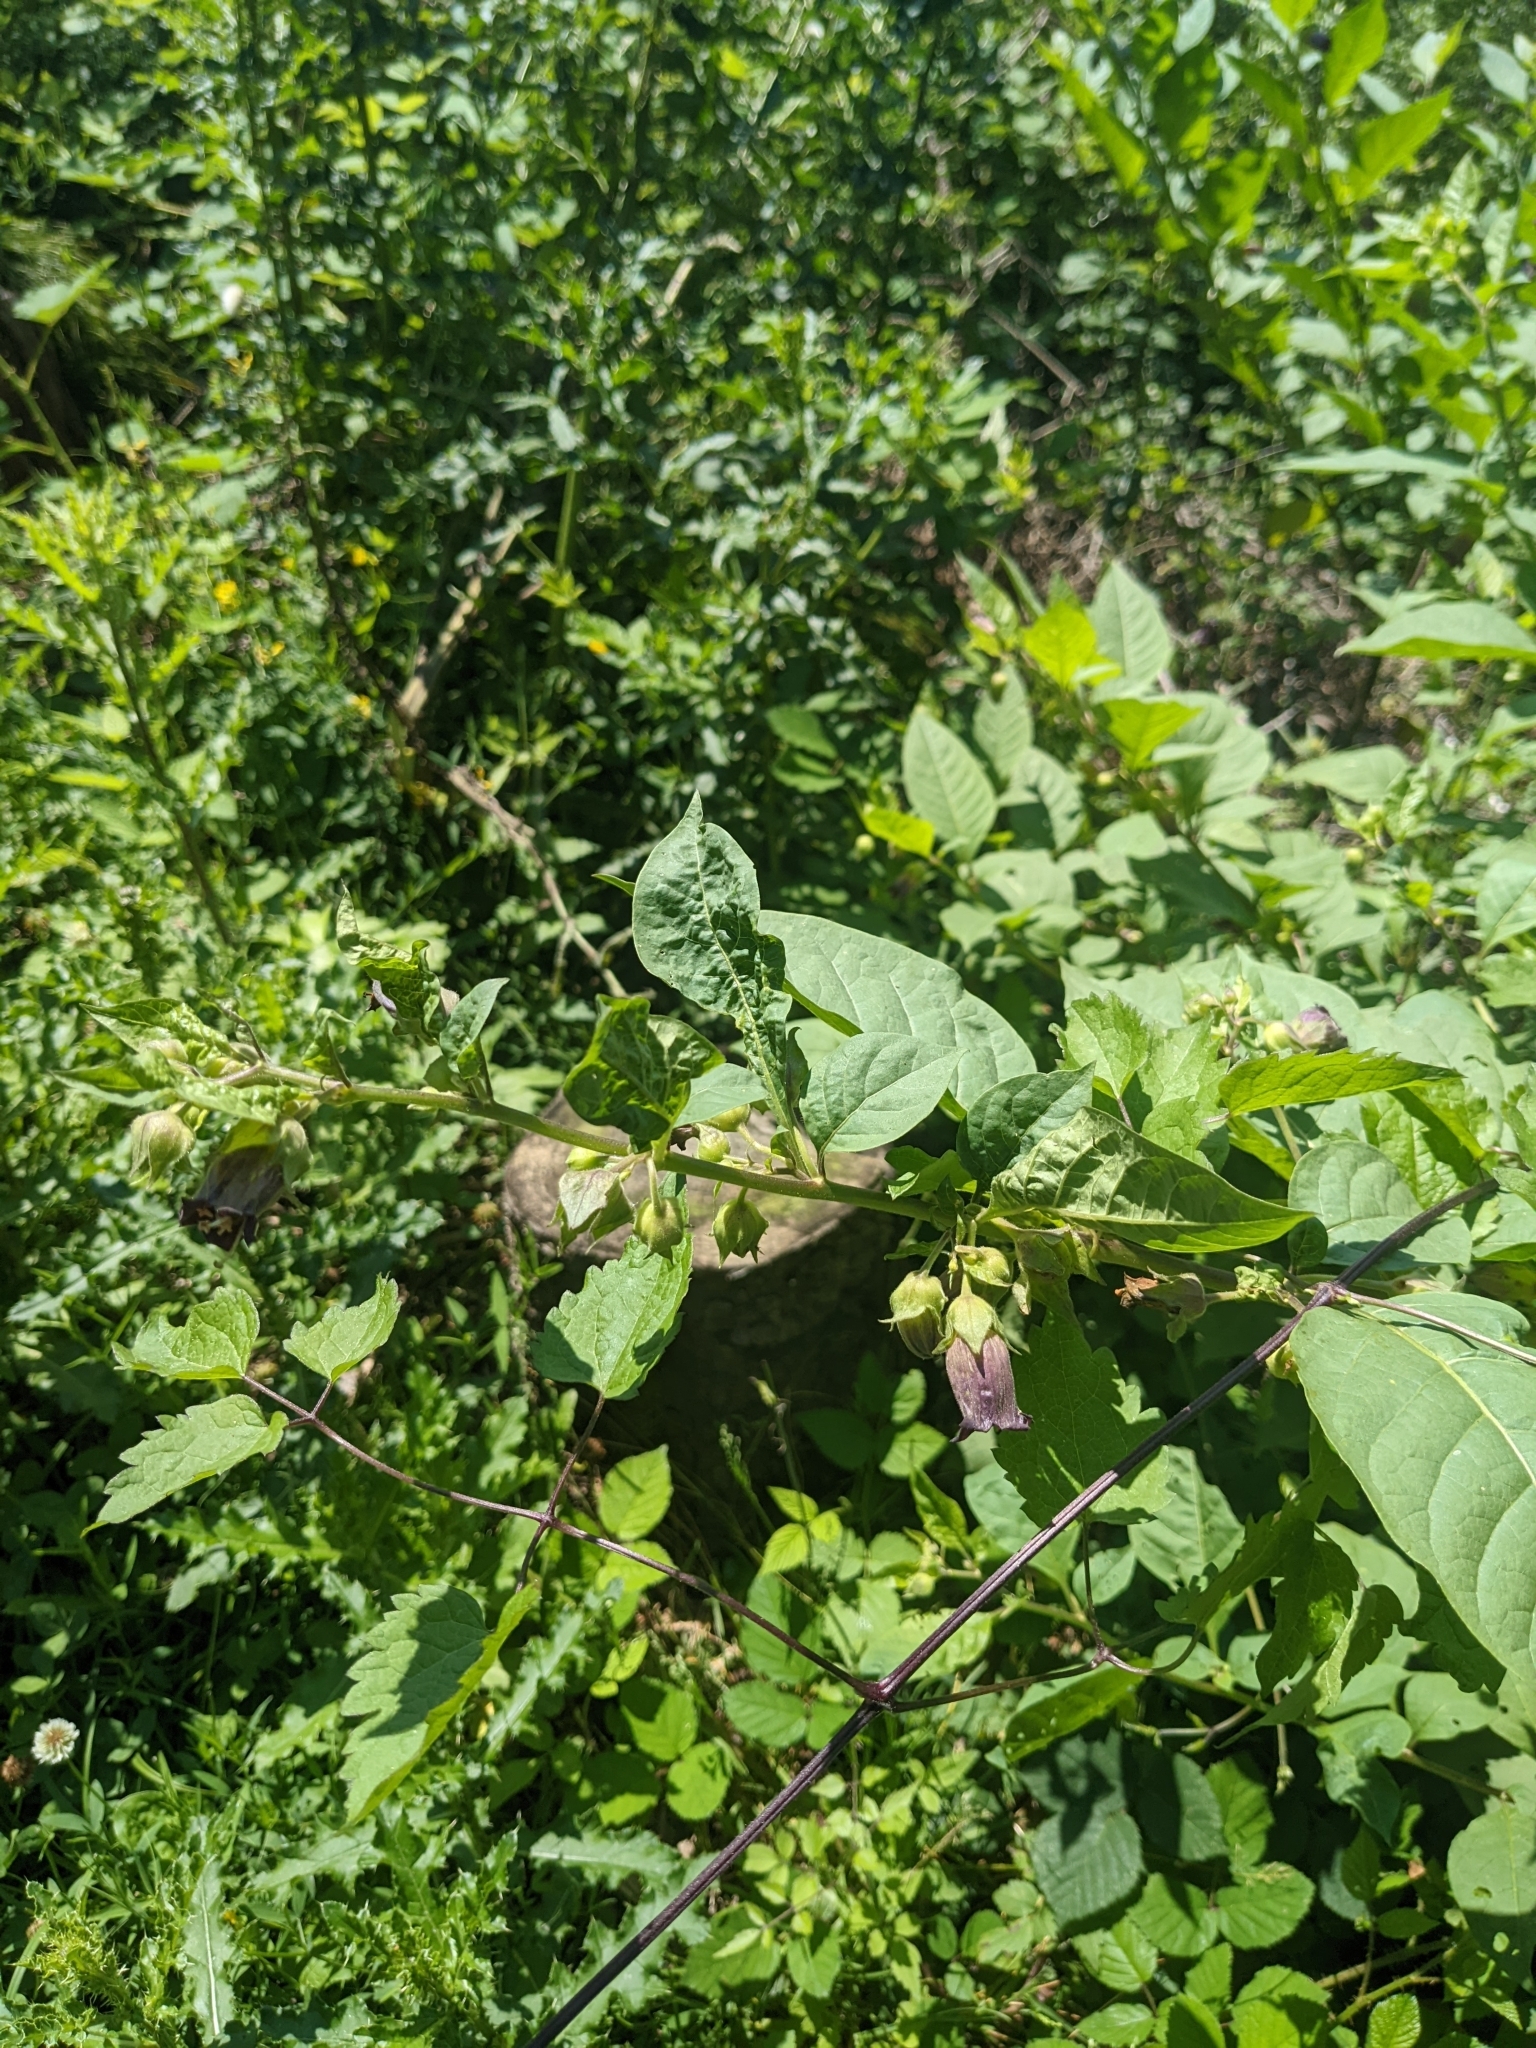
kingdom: Plantae
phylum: Tracheophyta
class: Magnoliopsida
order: Solanales
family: Solanaceae
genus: Atropa
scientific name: Atropa belladonna
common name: Deadly nightshade
